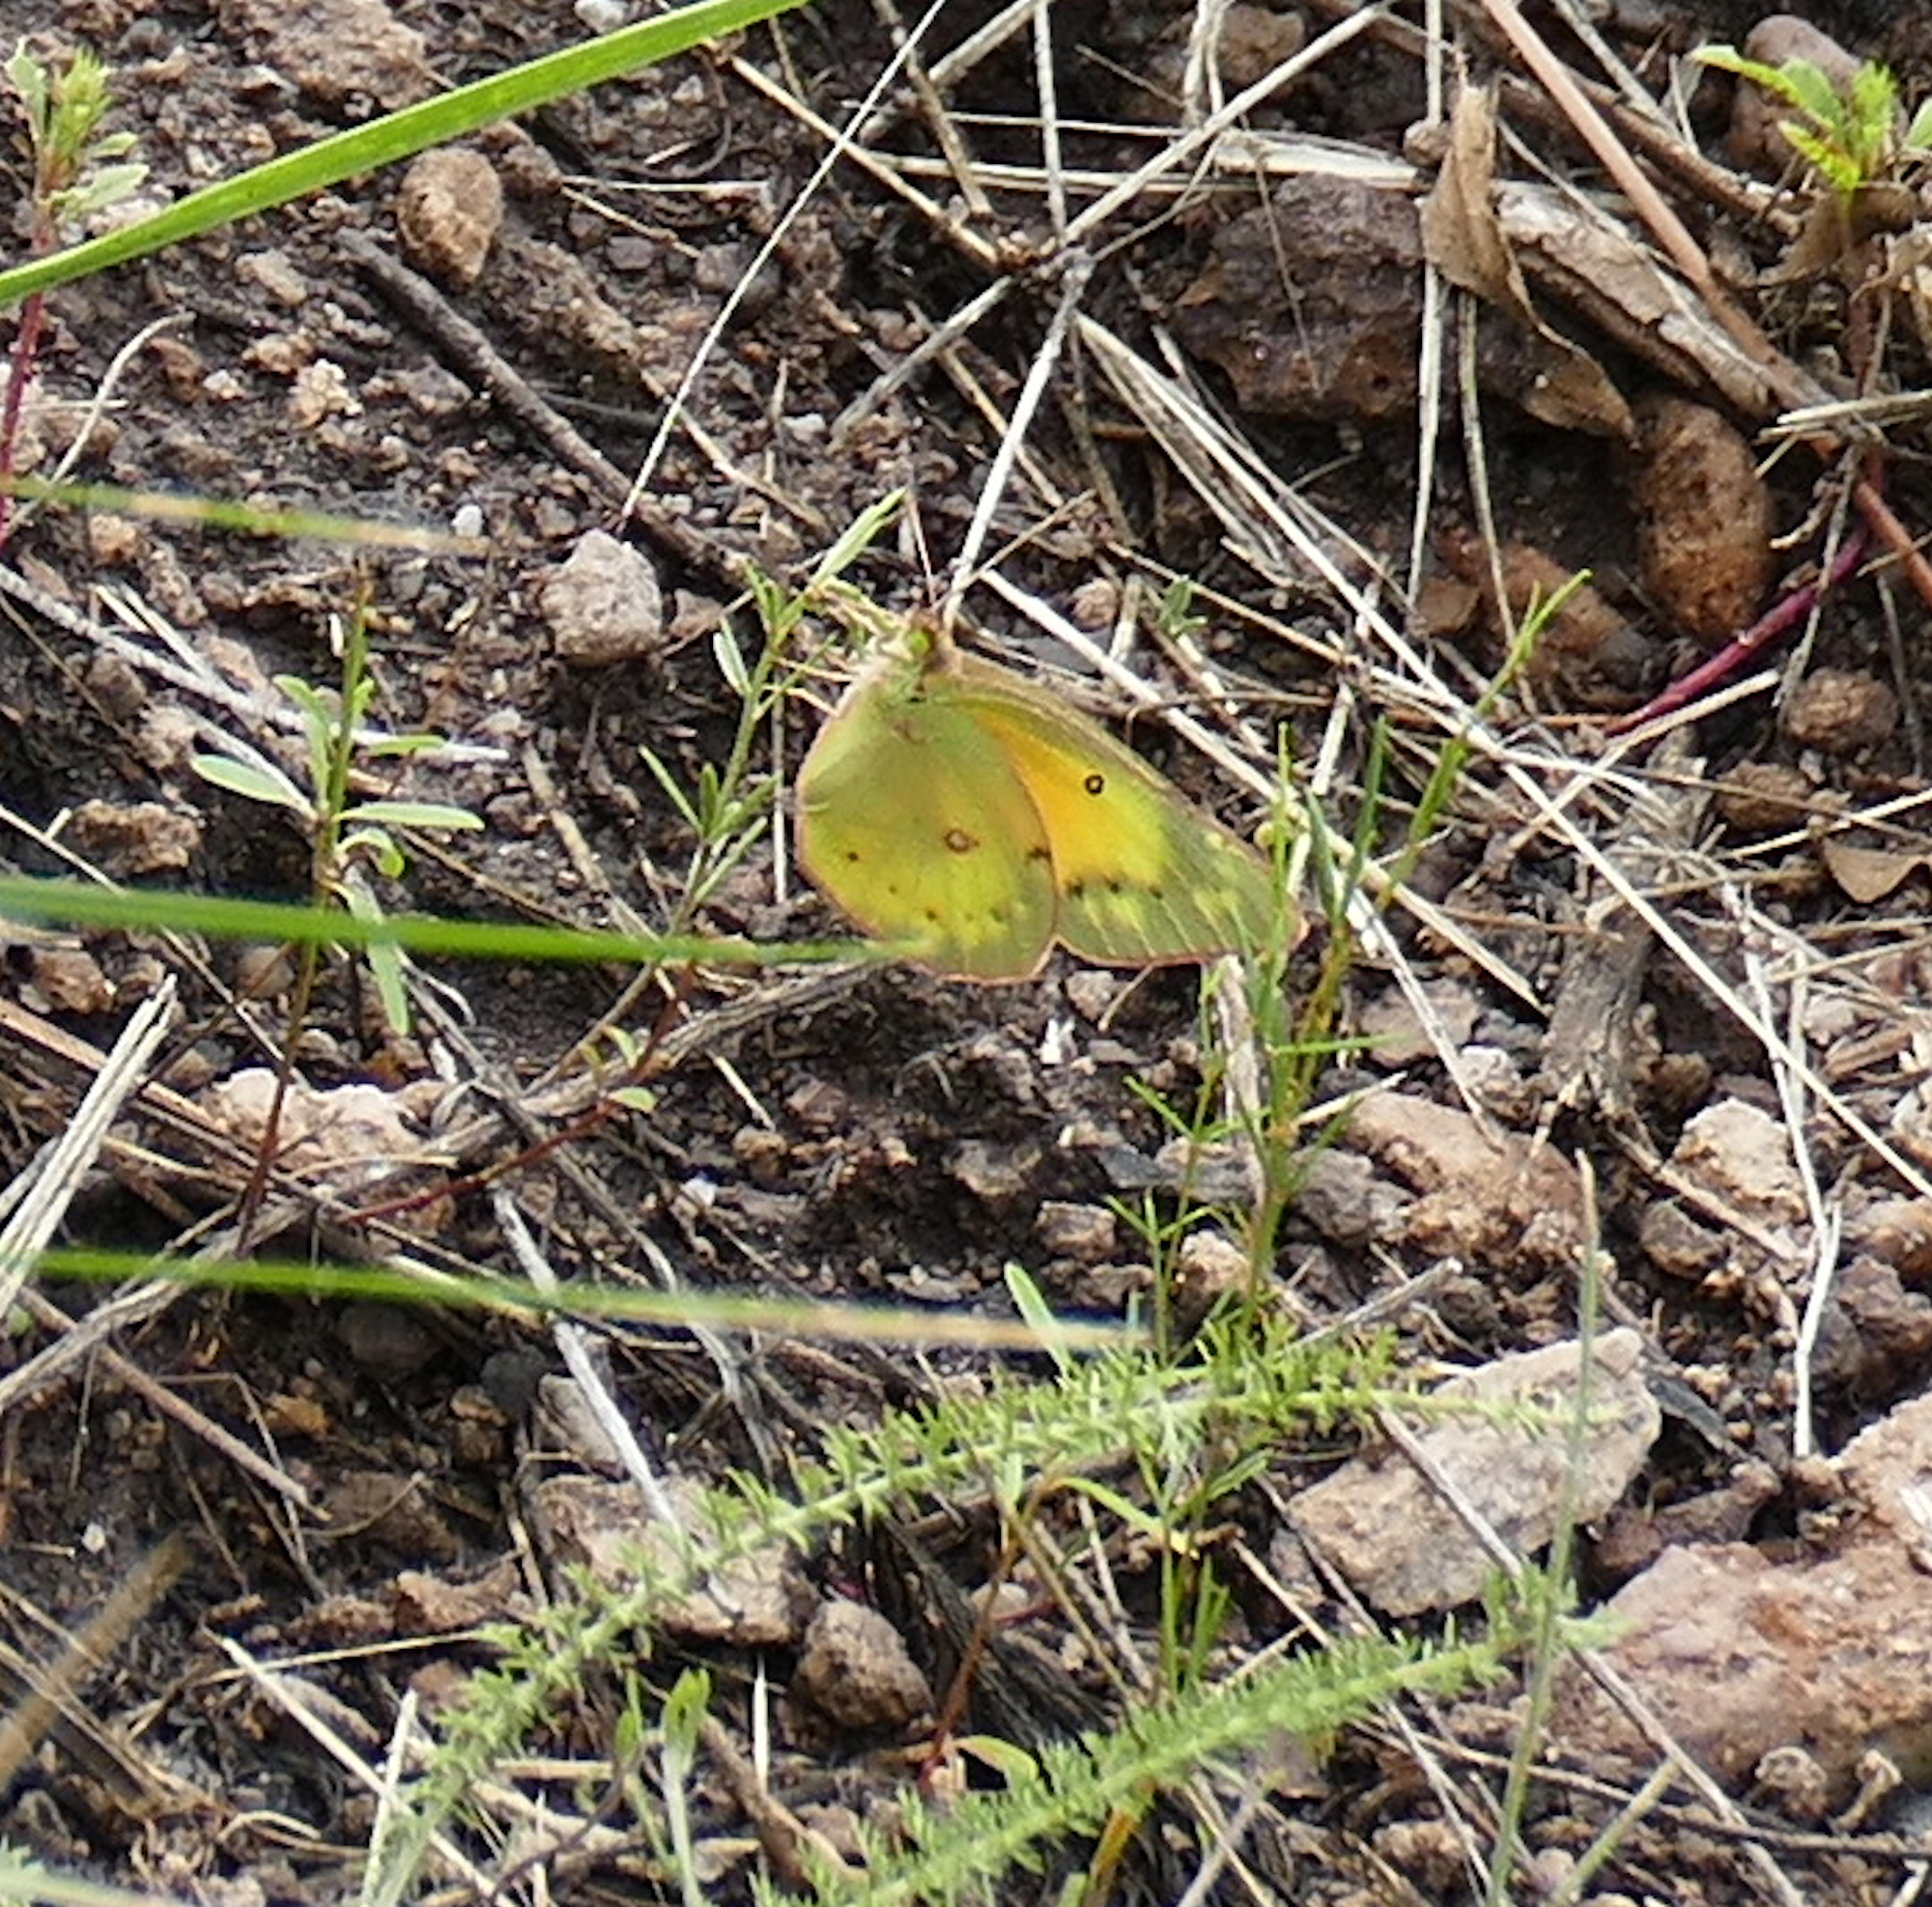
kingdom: Animalia
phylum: Arthropoda
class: Insecta
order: Lepidoptera
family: Pieridae
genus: Colias
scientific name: Colias eurytheme
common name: Alfalfa butterfly
